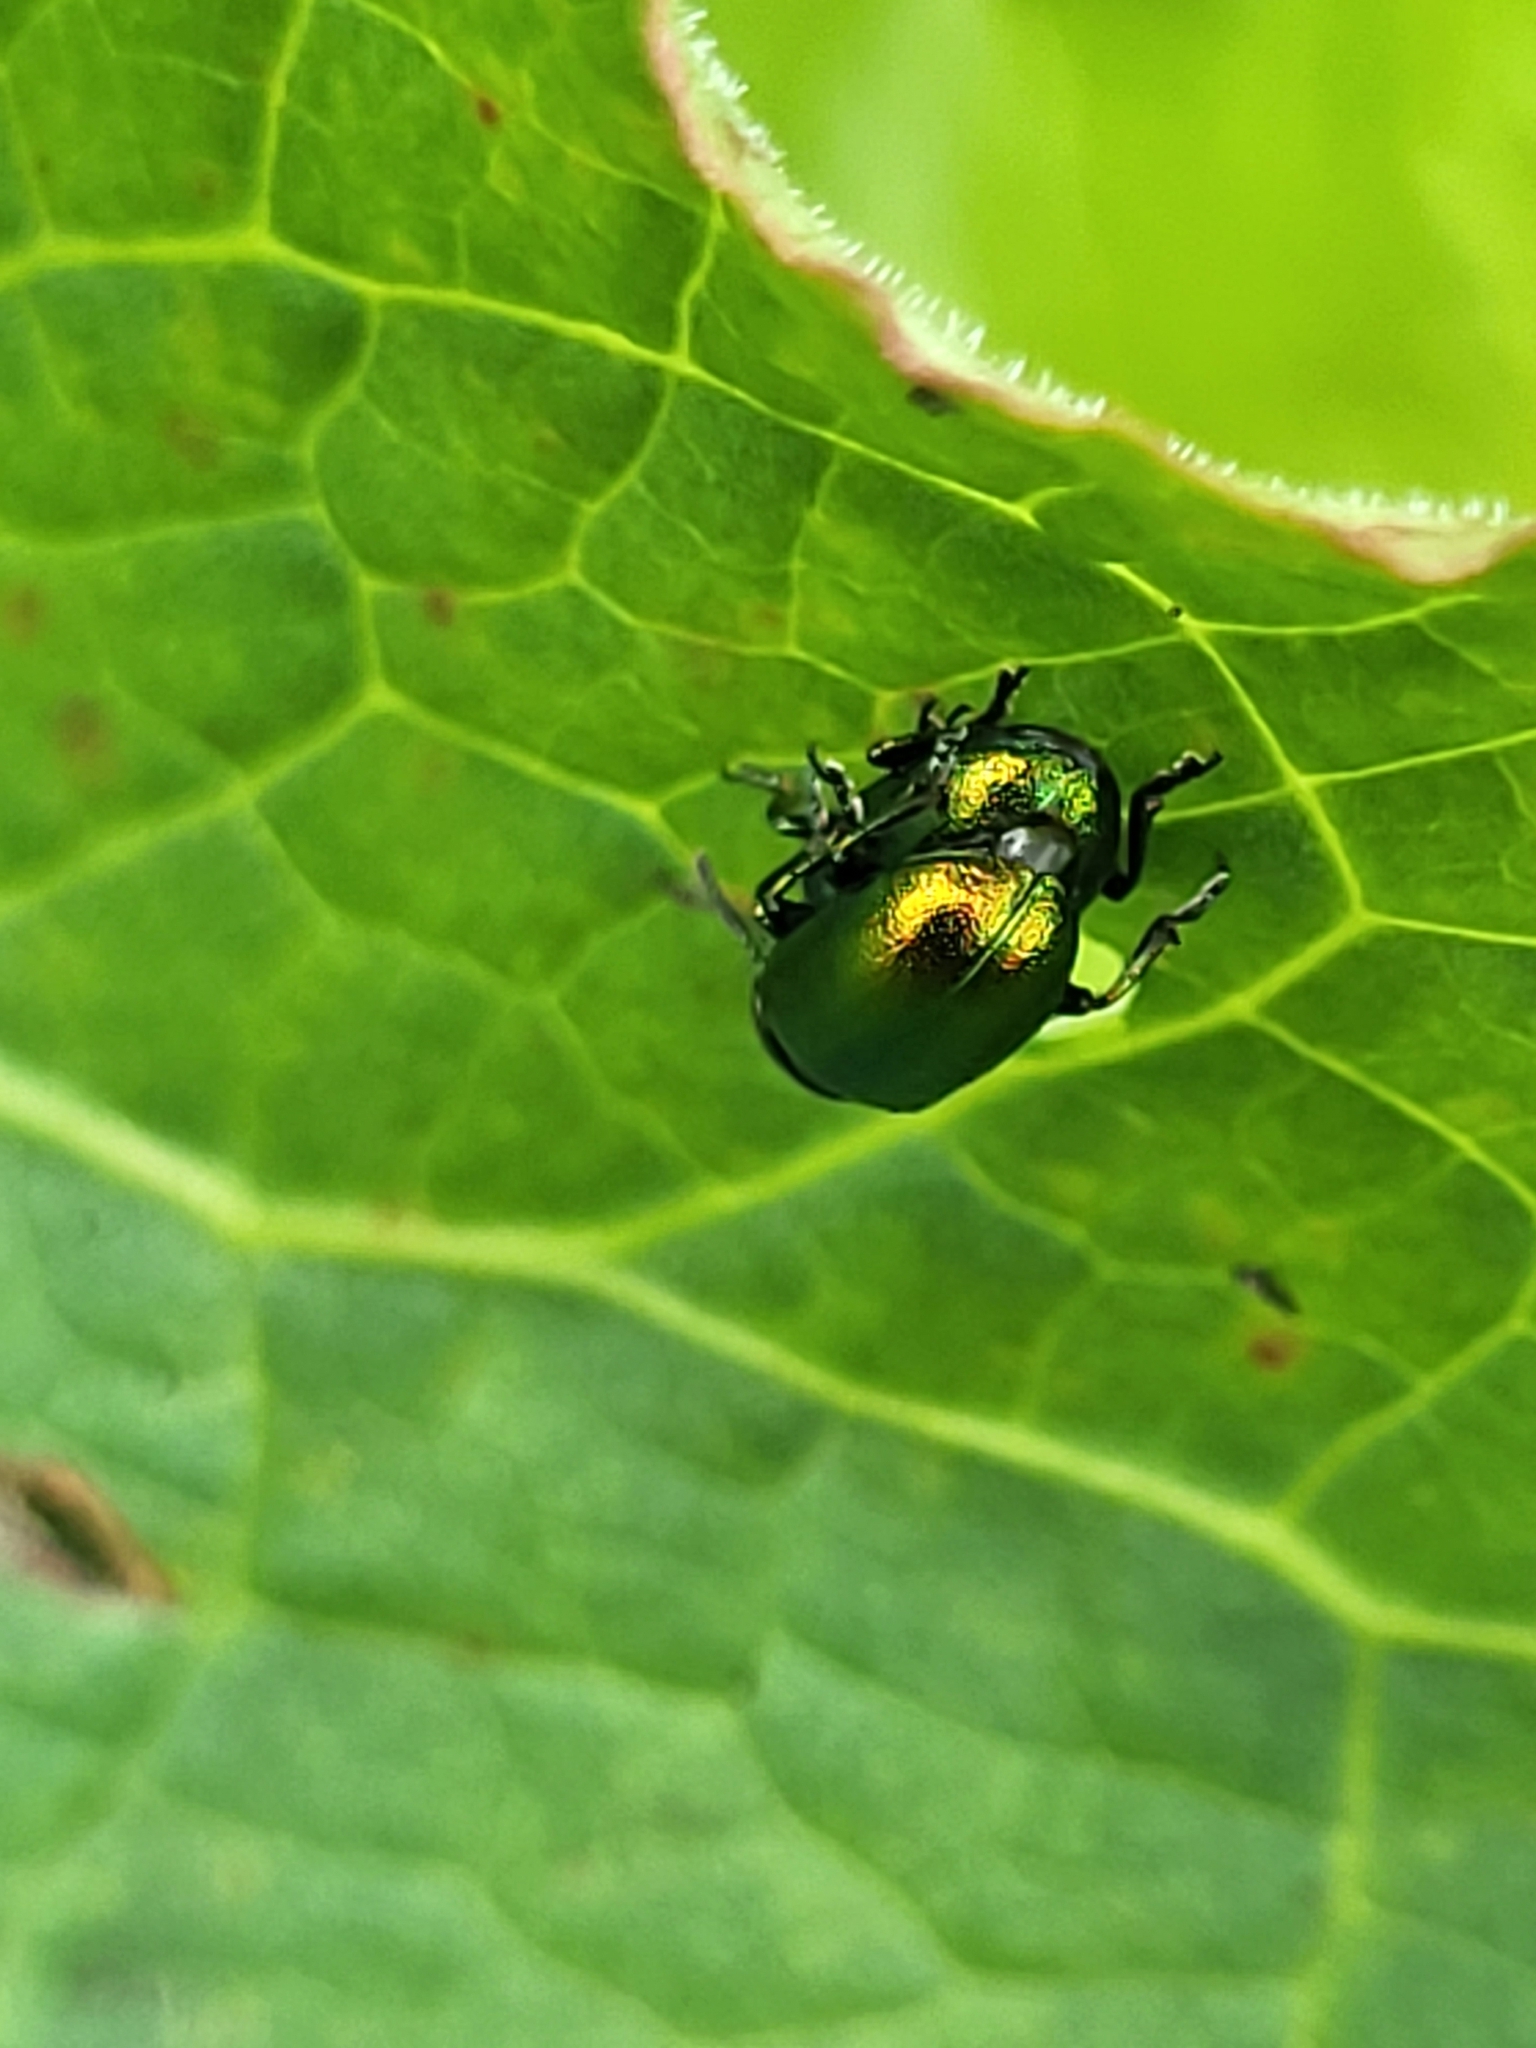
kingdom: Animalia
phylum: Arthropoda
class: Insecta
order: Coleoptera
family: Chrysomelidae
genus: Gastrophysa
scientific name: Gastrophysa viridula
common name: Green dock beetle
